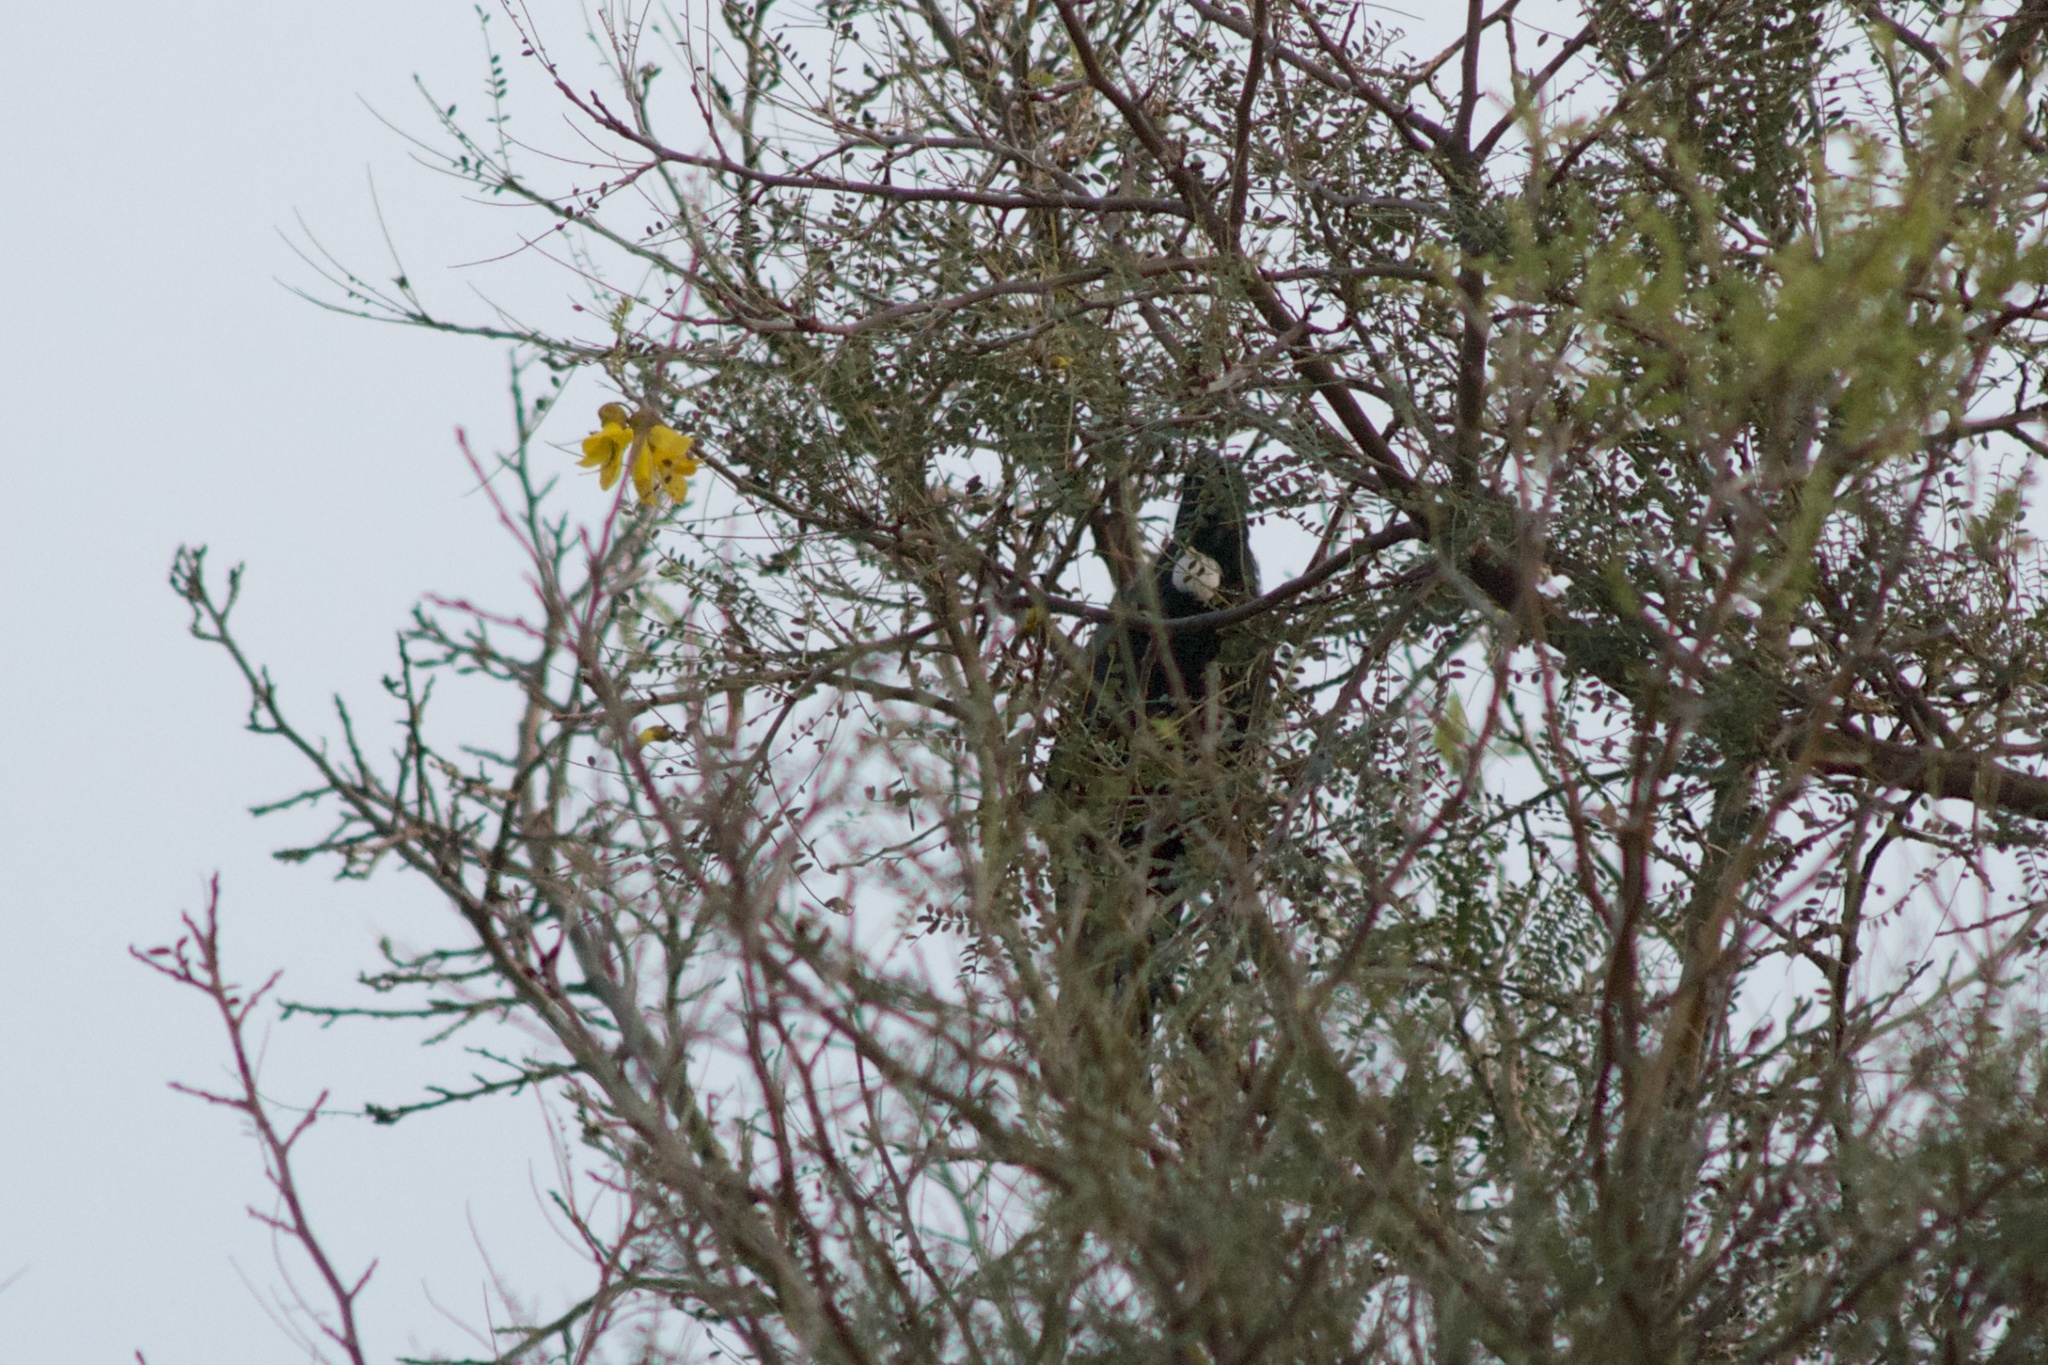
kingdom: Animalia
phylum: Chordata
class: Aves
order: Passeriformes
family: Meliphagidae
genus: Prosthemadera
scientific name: Prosthemadera novaeseelandiae
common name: Tui
